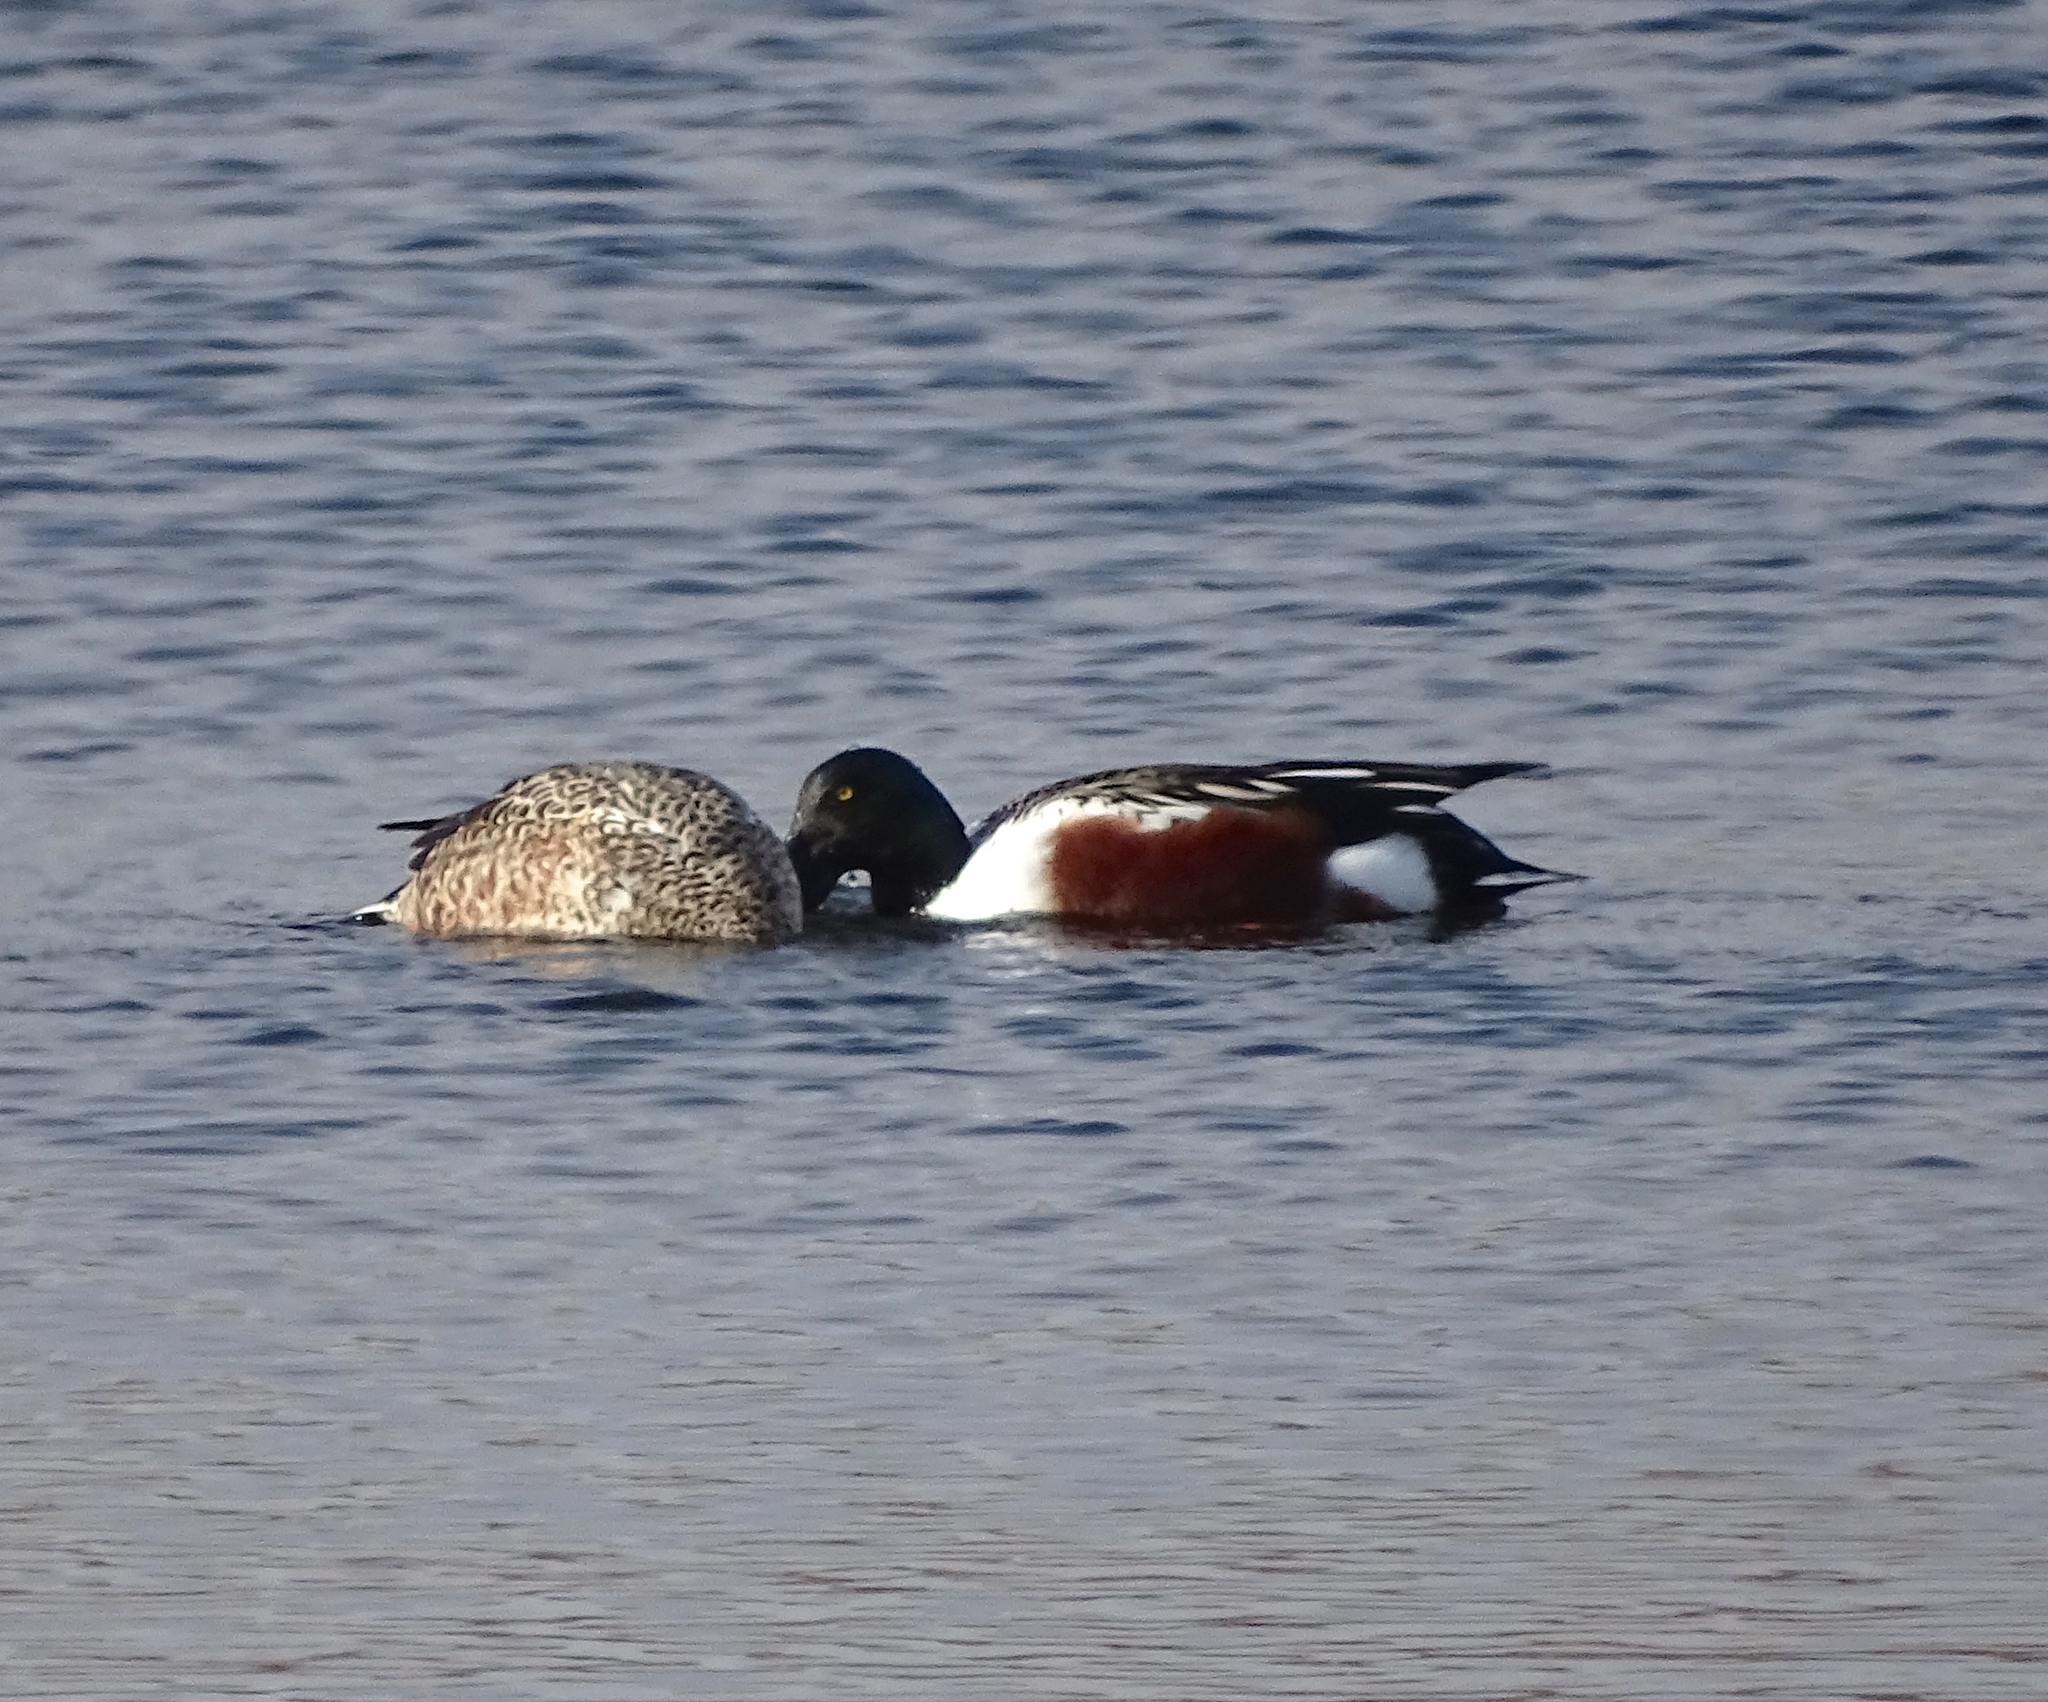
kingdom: Animalia
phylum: Chordata
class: Aves
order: Anseriformes
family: Anatidae
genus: Spatula
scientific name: Spatula clypeata
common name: Northern shoveler
